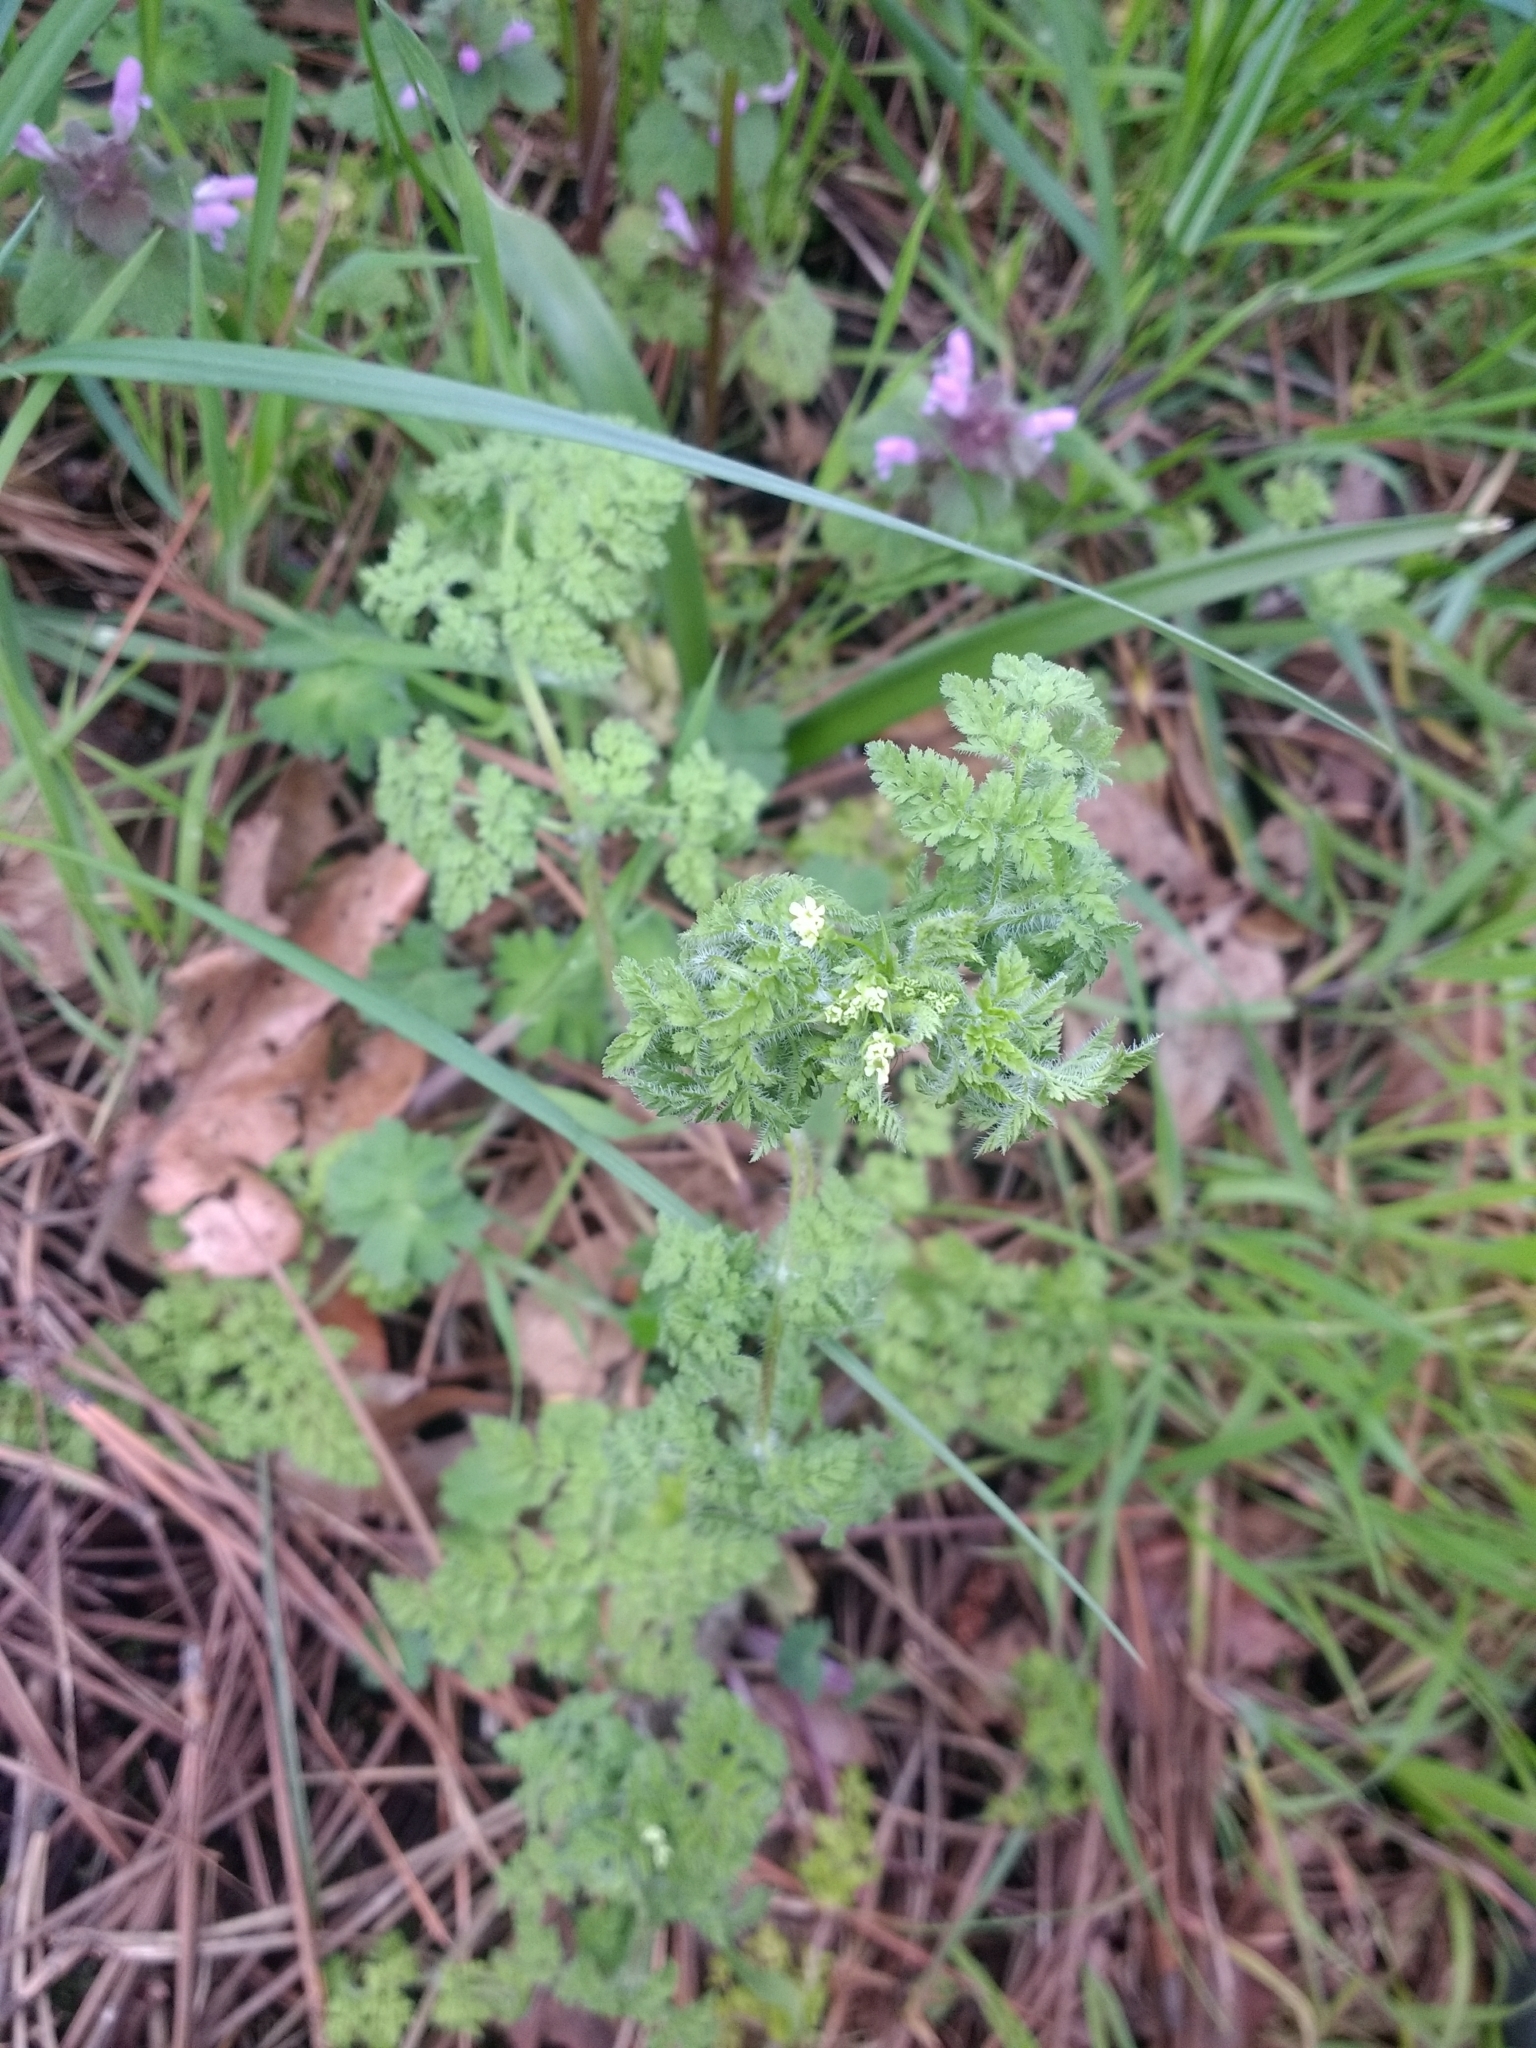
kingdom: Plantae
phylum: Tracheophyta
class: Magnoliopsida
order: Apiales
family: Apiaceae
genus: Anthriscus
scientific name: Anthriscus caucalis
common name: Bur chervil
